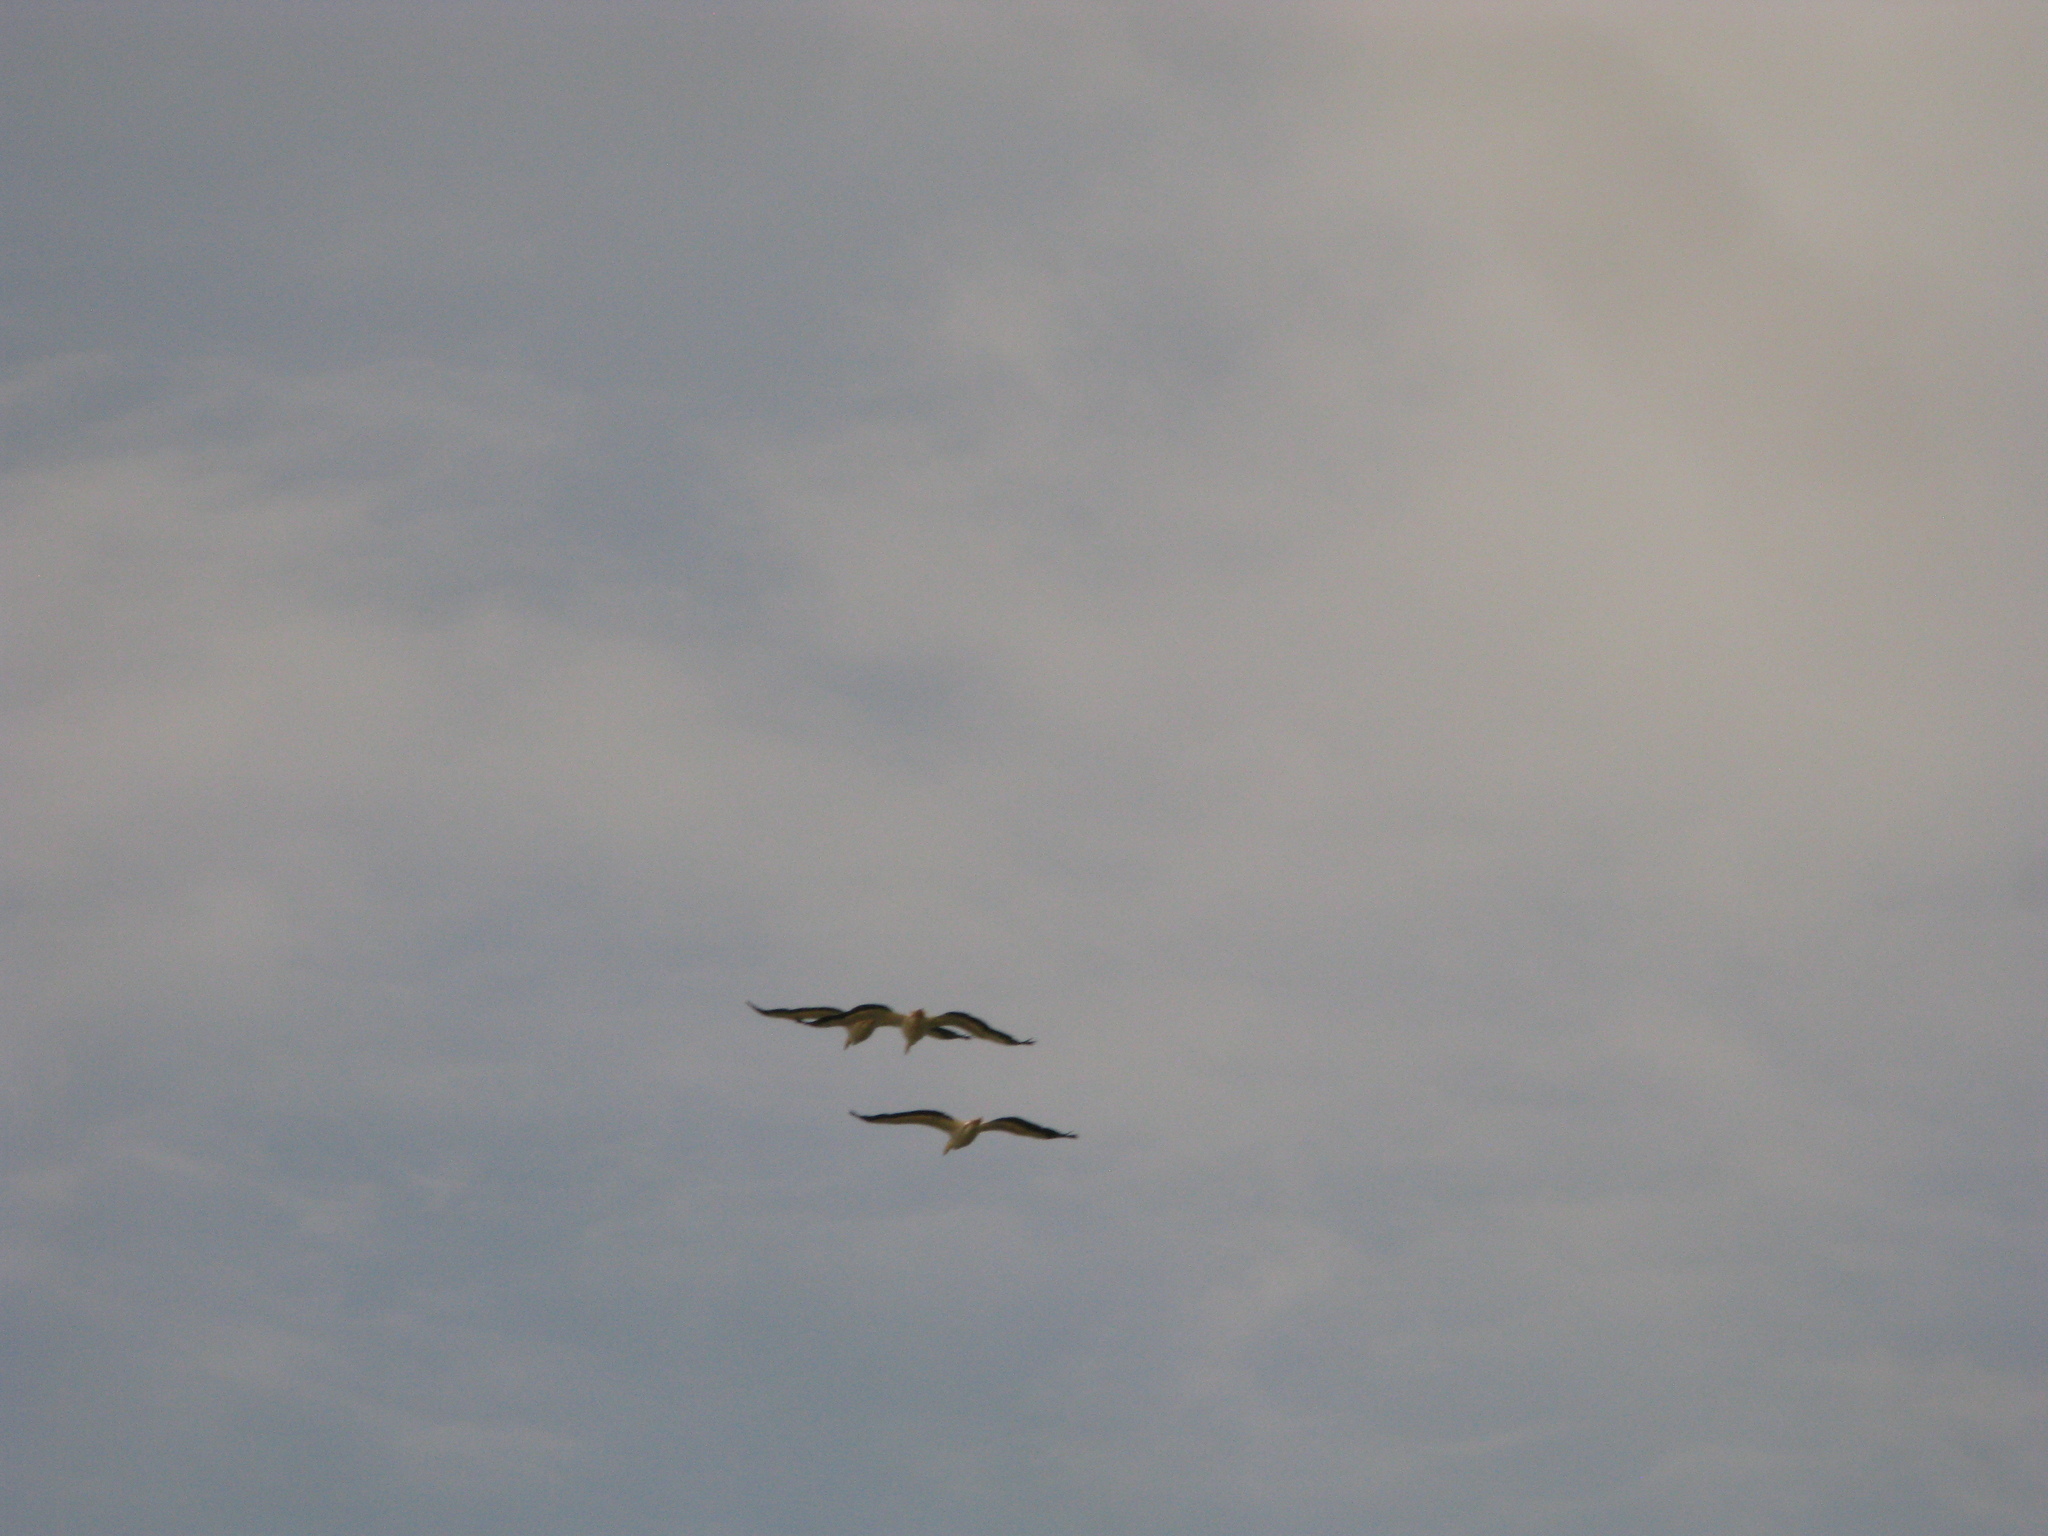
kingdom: Animalia
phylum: Chordata
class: Aves
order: Pelecaniformes
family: Pelecanidae
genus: Pelecanus
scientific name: Pelecanus onocrotalus
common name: Great white pelican
